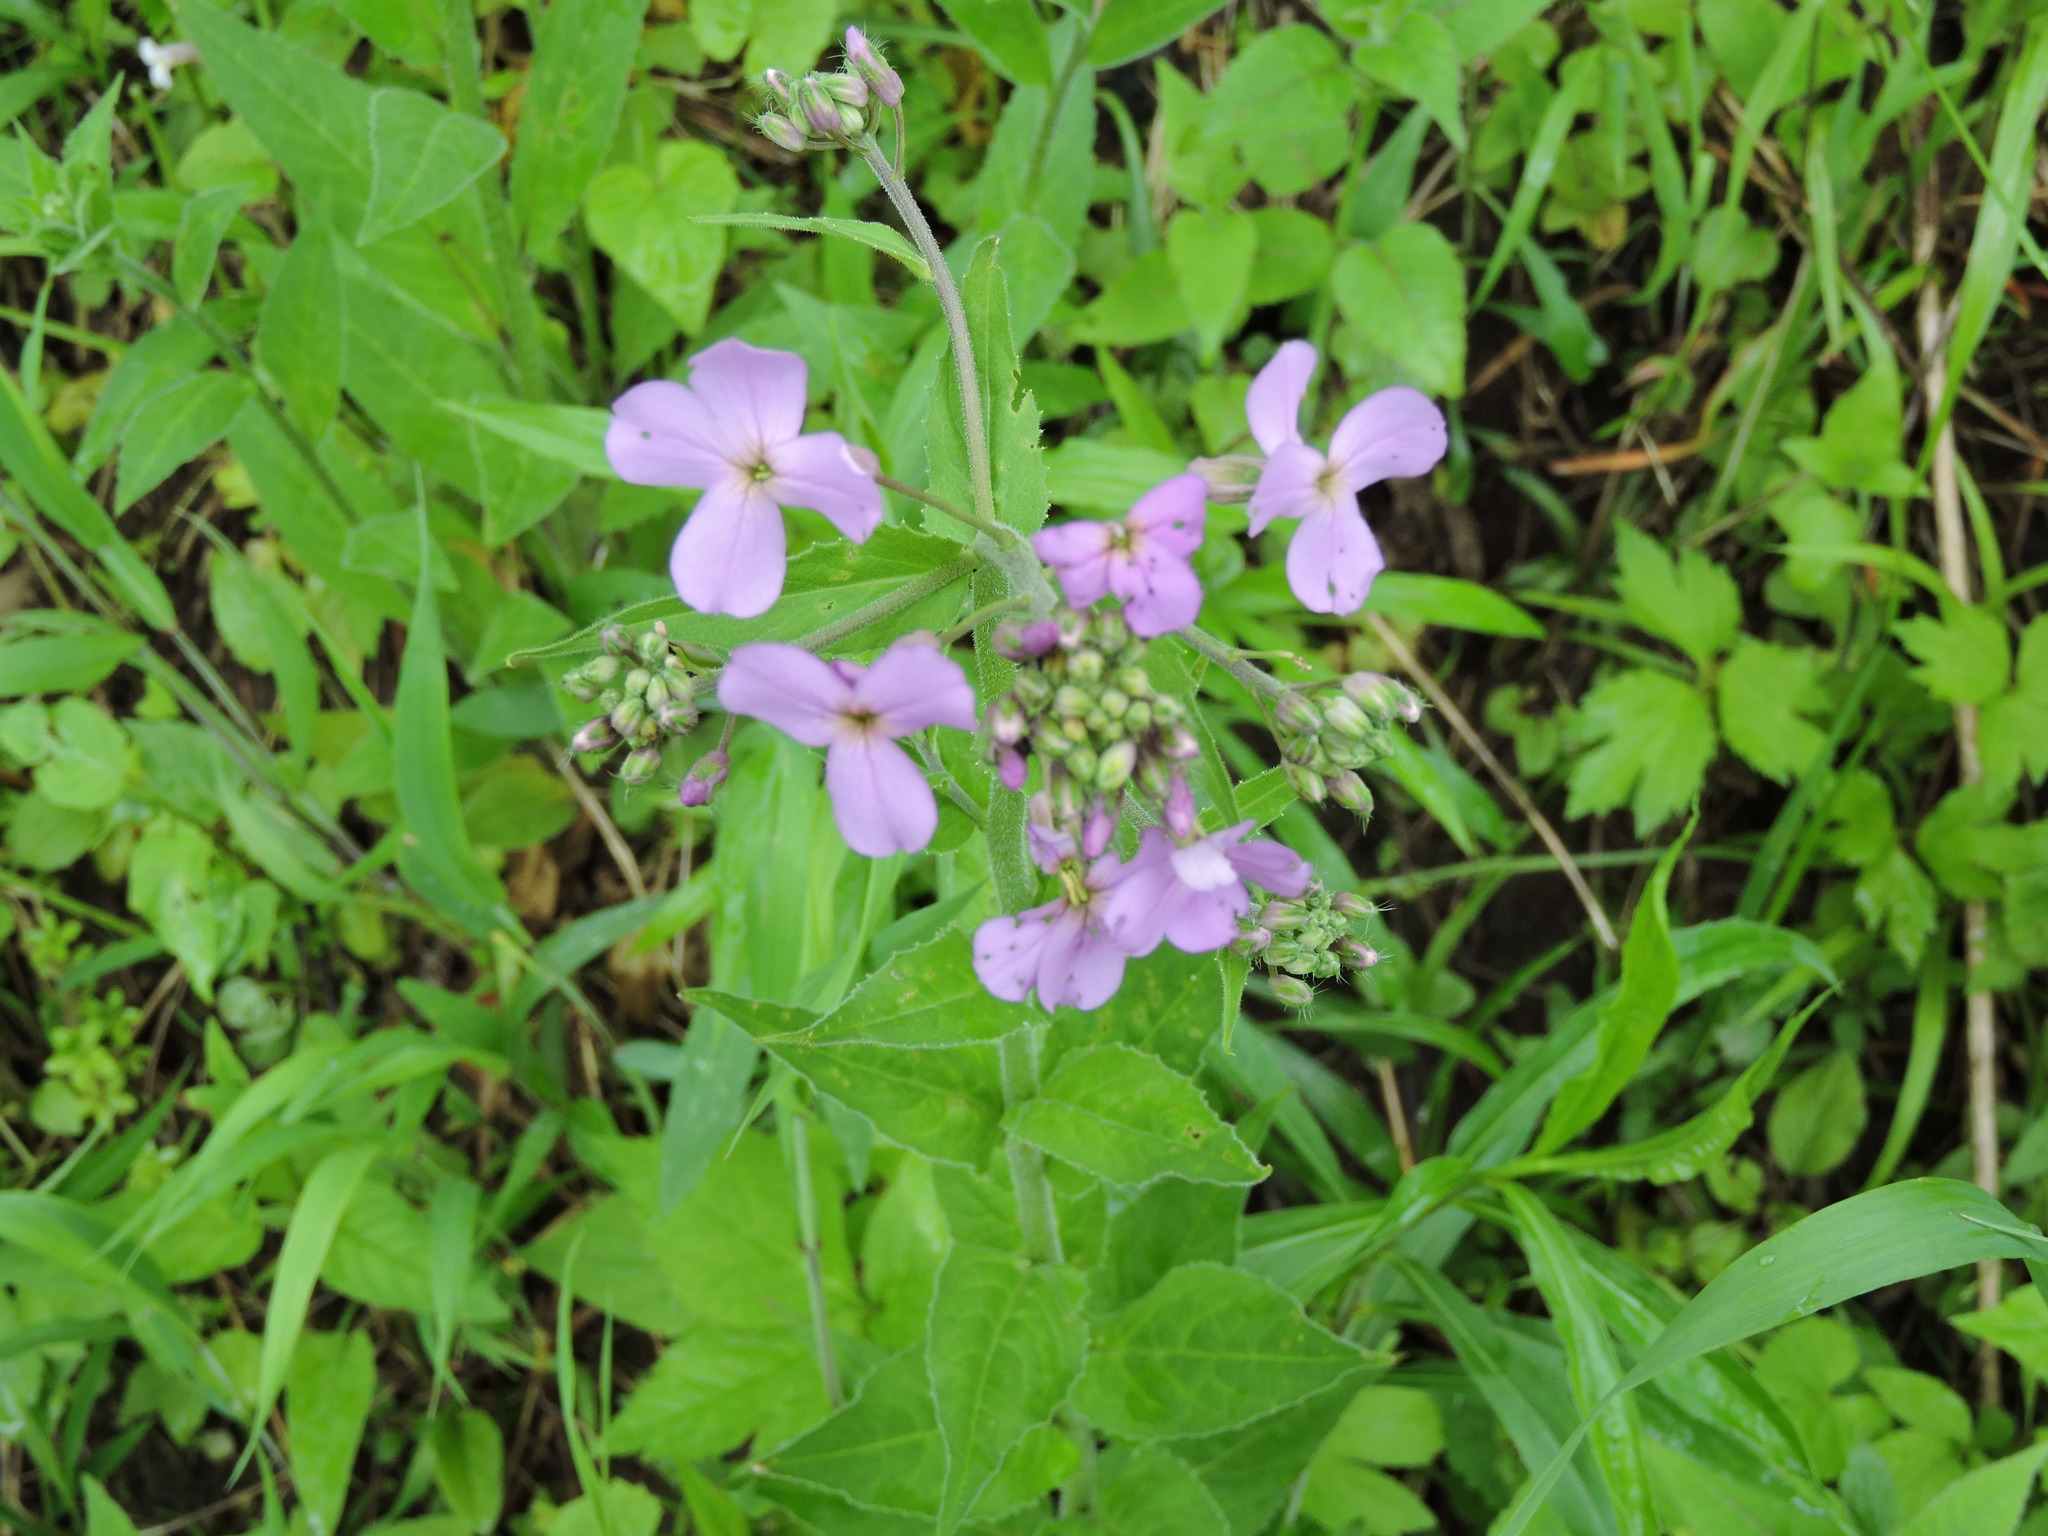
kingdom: Plantae
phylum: Tracheophyta
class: Magnoliopsida
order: Brassicales
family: Brassicaceae
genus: Hesperis
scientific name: Hesperis matronalis
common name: Dame's-violet
